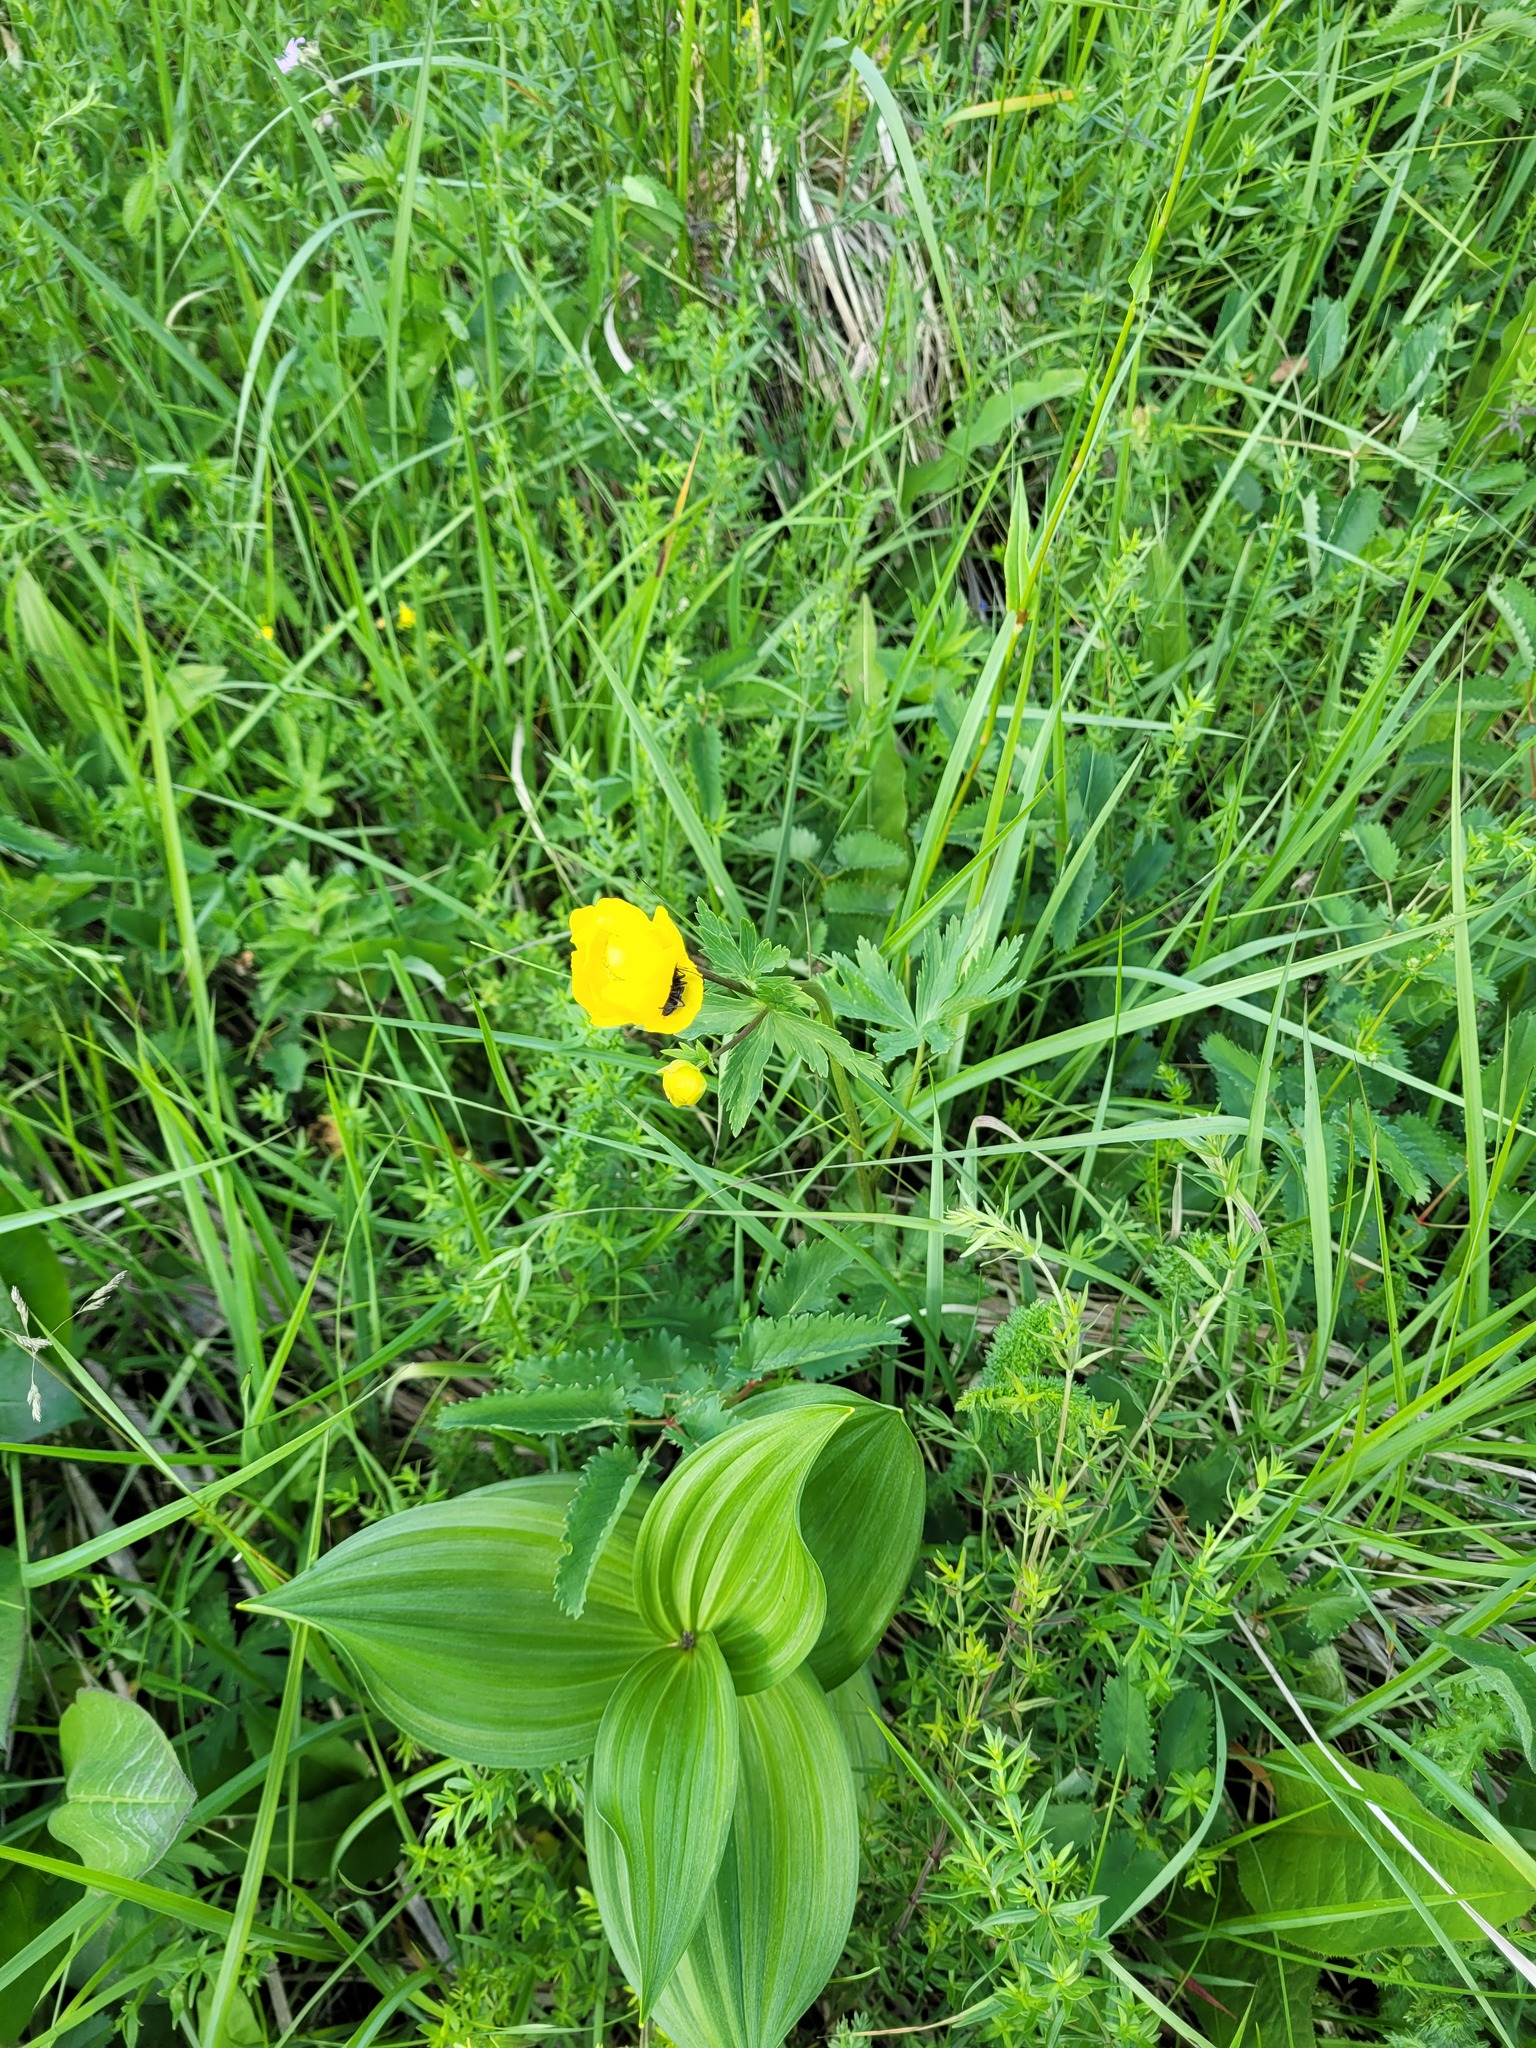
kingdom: Plantae
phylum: Tracheophyta
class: Magnoliopsida
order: Ranunculales
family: Ranunculaceae
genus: Trollius
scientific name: Trollius europaeus
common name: European globeflower
